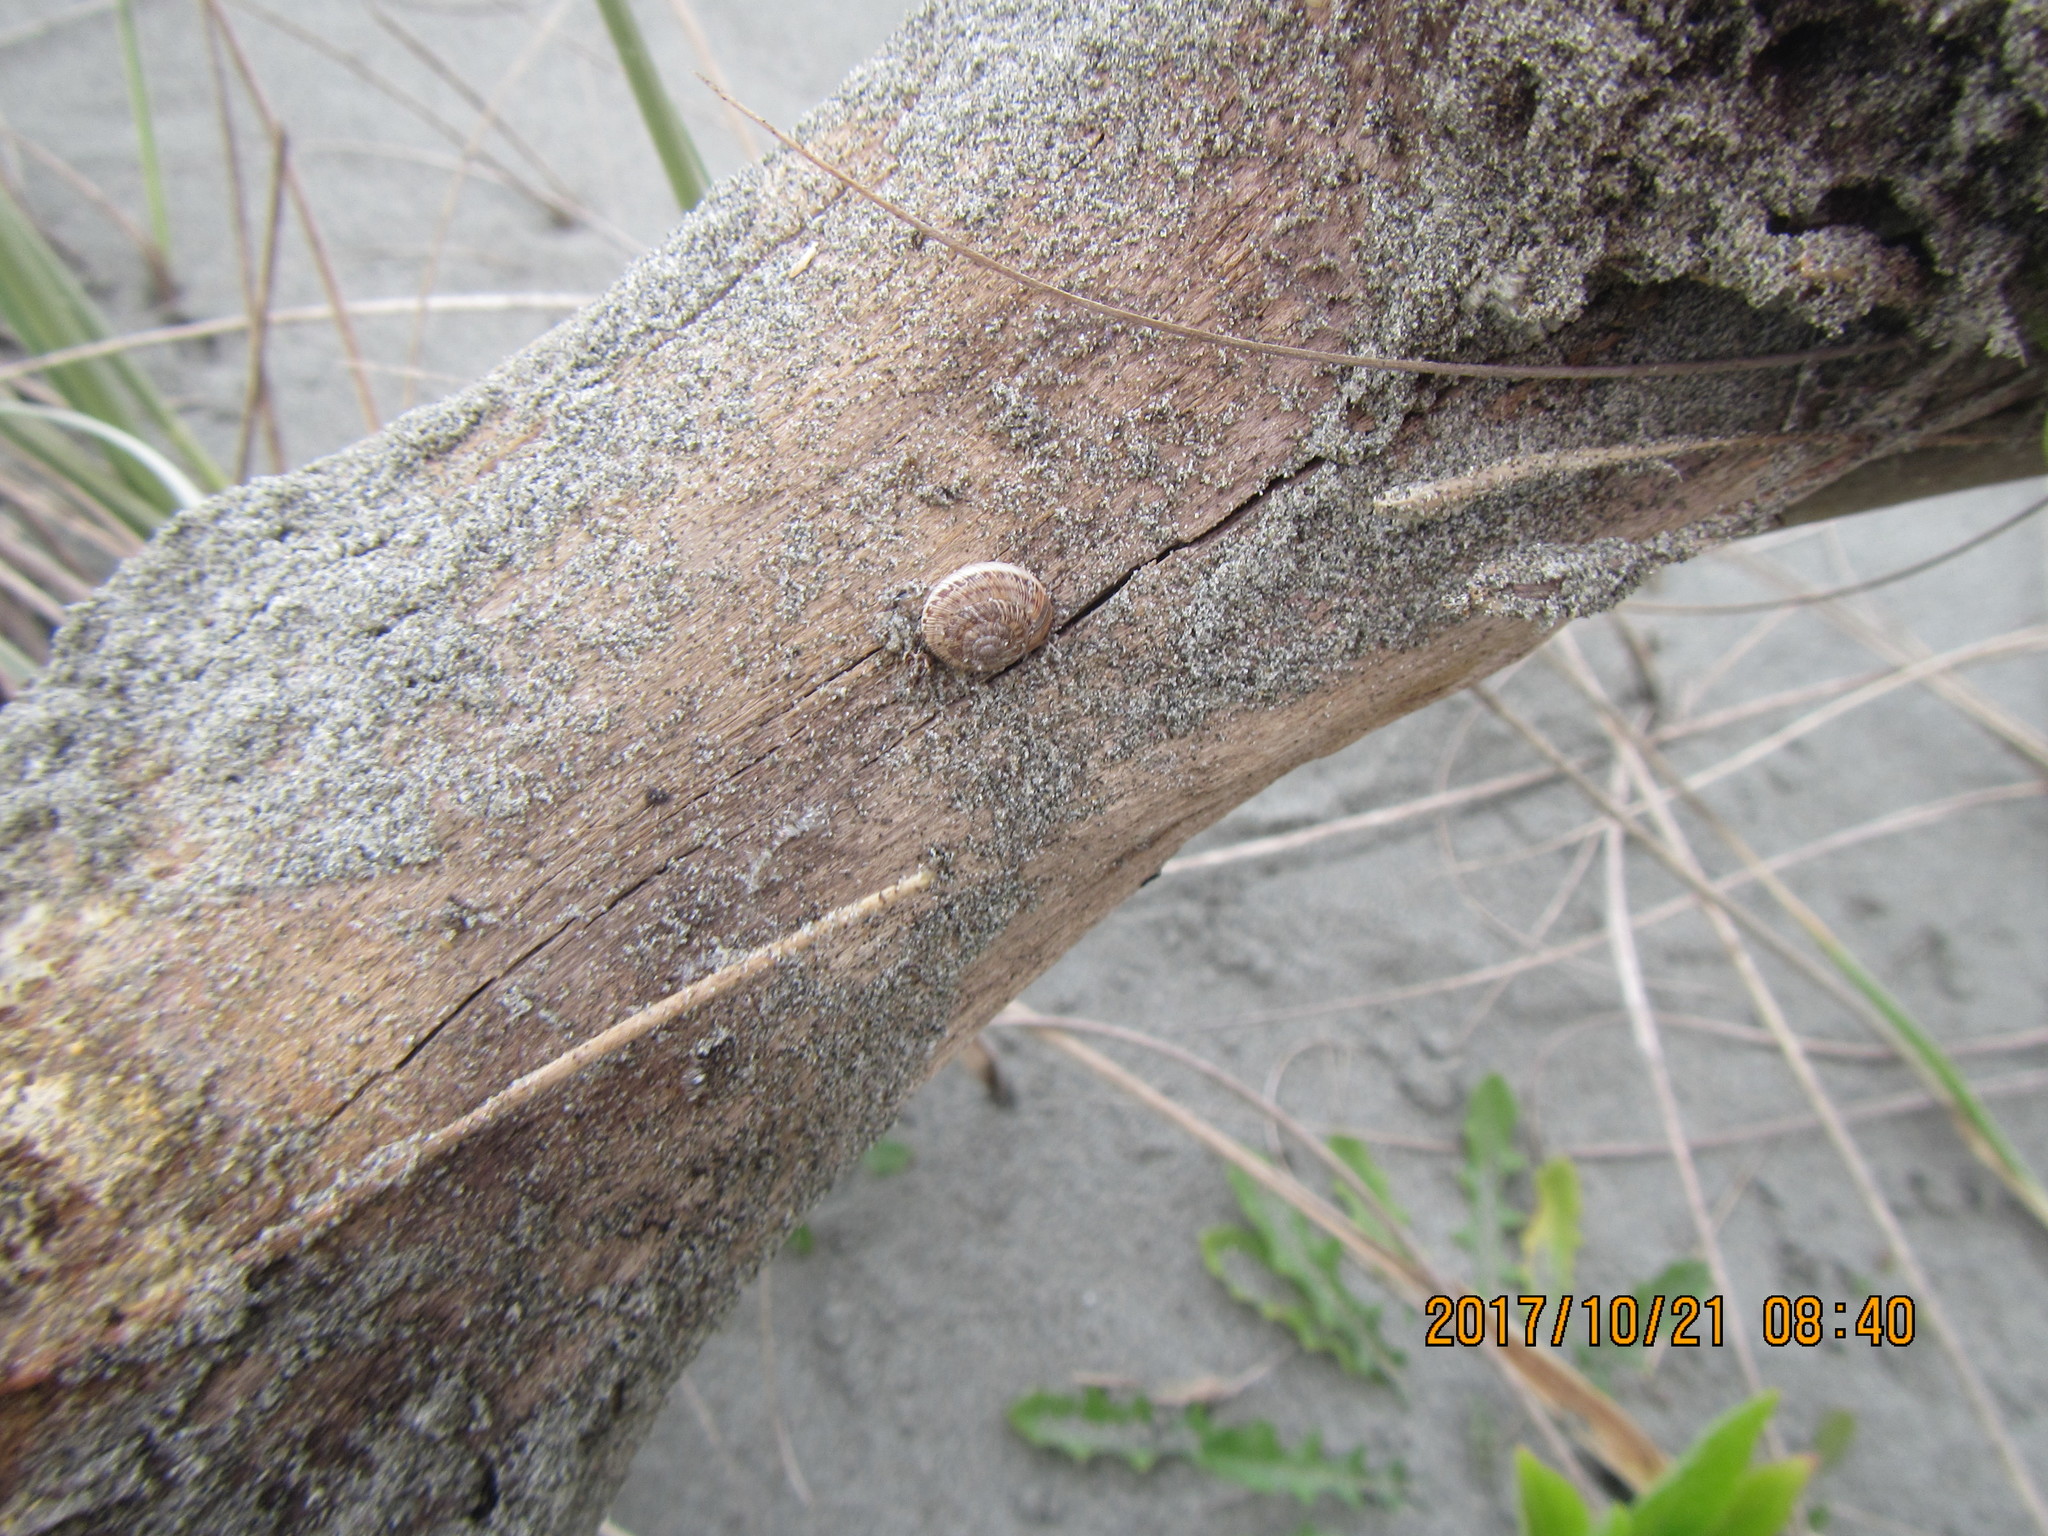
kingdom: Animalia
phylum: Mollusca
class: Gastropoda
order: Stylommatophora
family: Geomitridae
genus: Xeroplexa
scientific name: Xeroplexa intersecta
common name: Wrinkled snail
